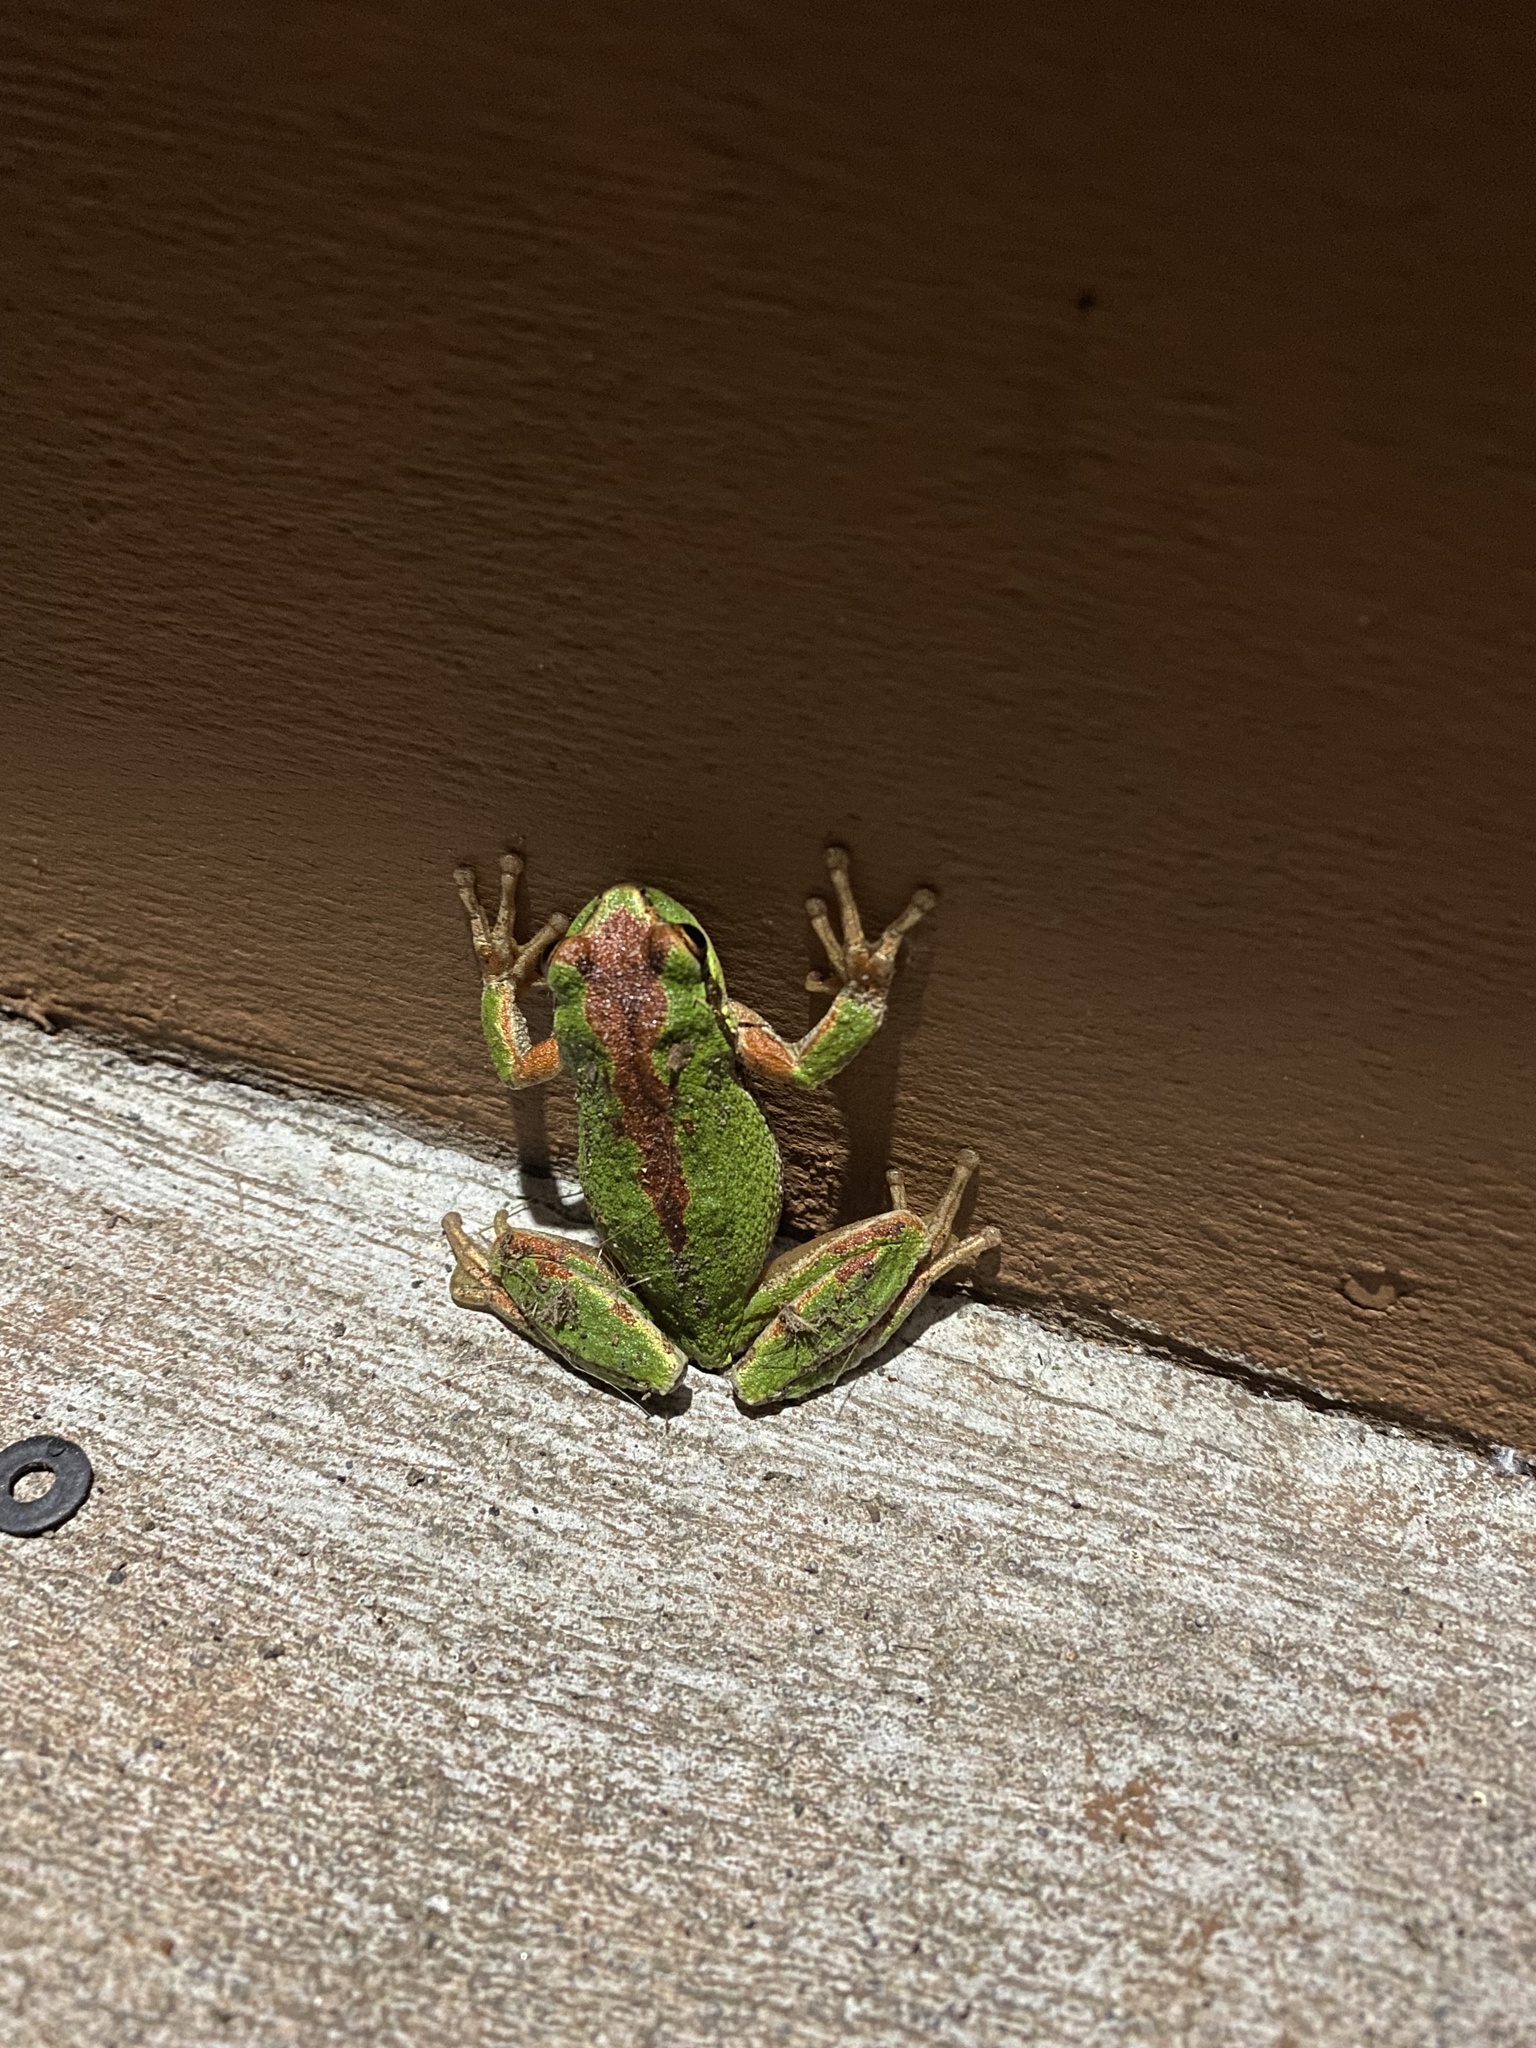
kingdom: Animalia
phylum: Chordata
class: Amphibia
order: Anura
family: Hylidae
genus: Pseudacris
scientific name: Pseudacris regilla
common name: Pacific chorus frog
